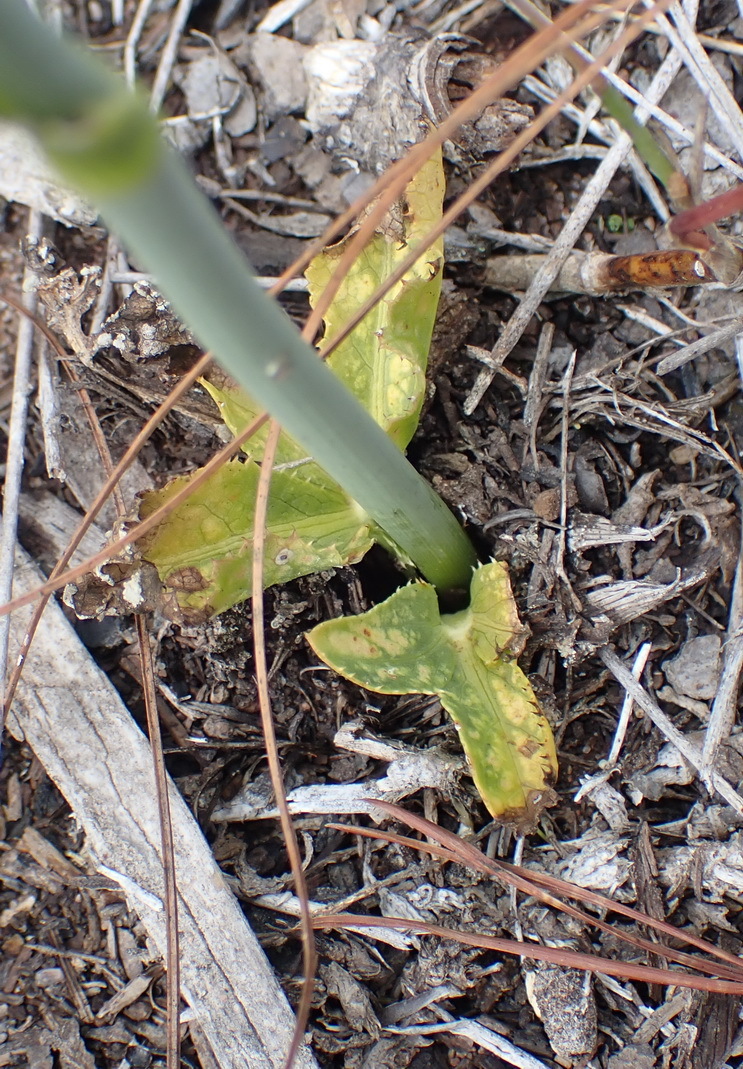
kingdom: Plantae
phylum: Tracheophyta
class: Magnoliopsida
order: Apiales
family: Apiaceae
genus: Lichtensteinia
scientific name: Lichtensteinia trifida
